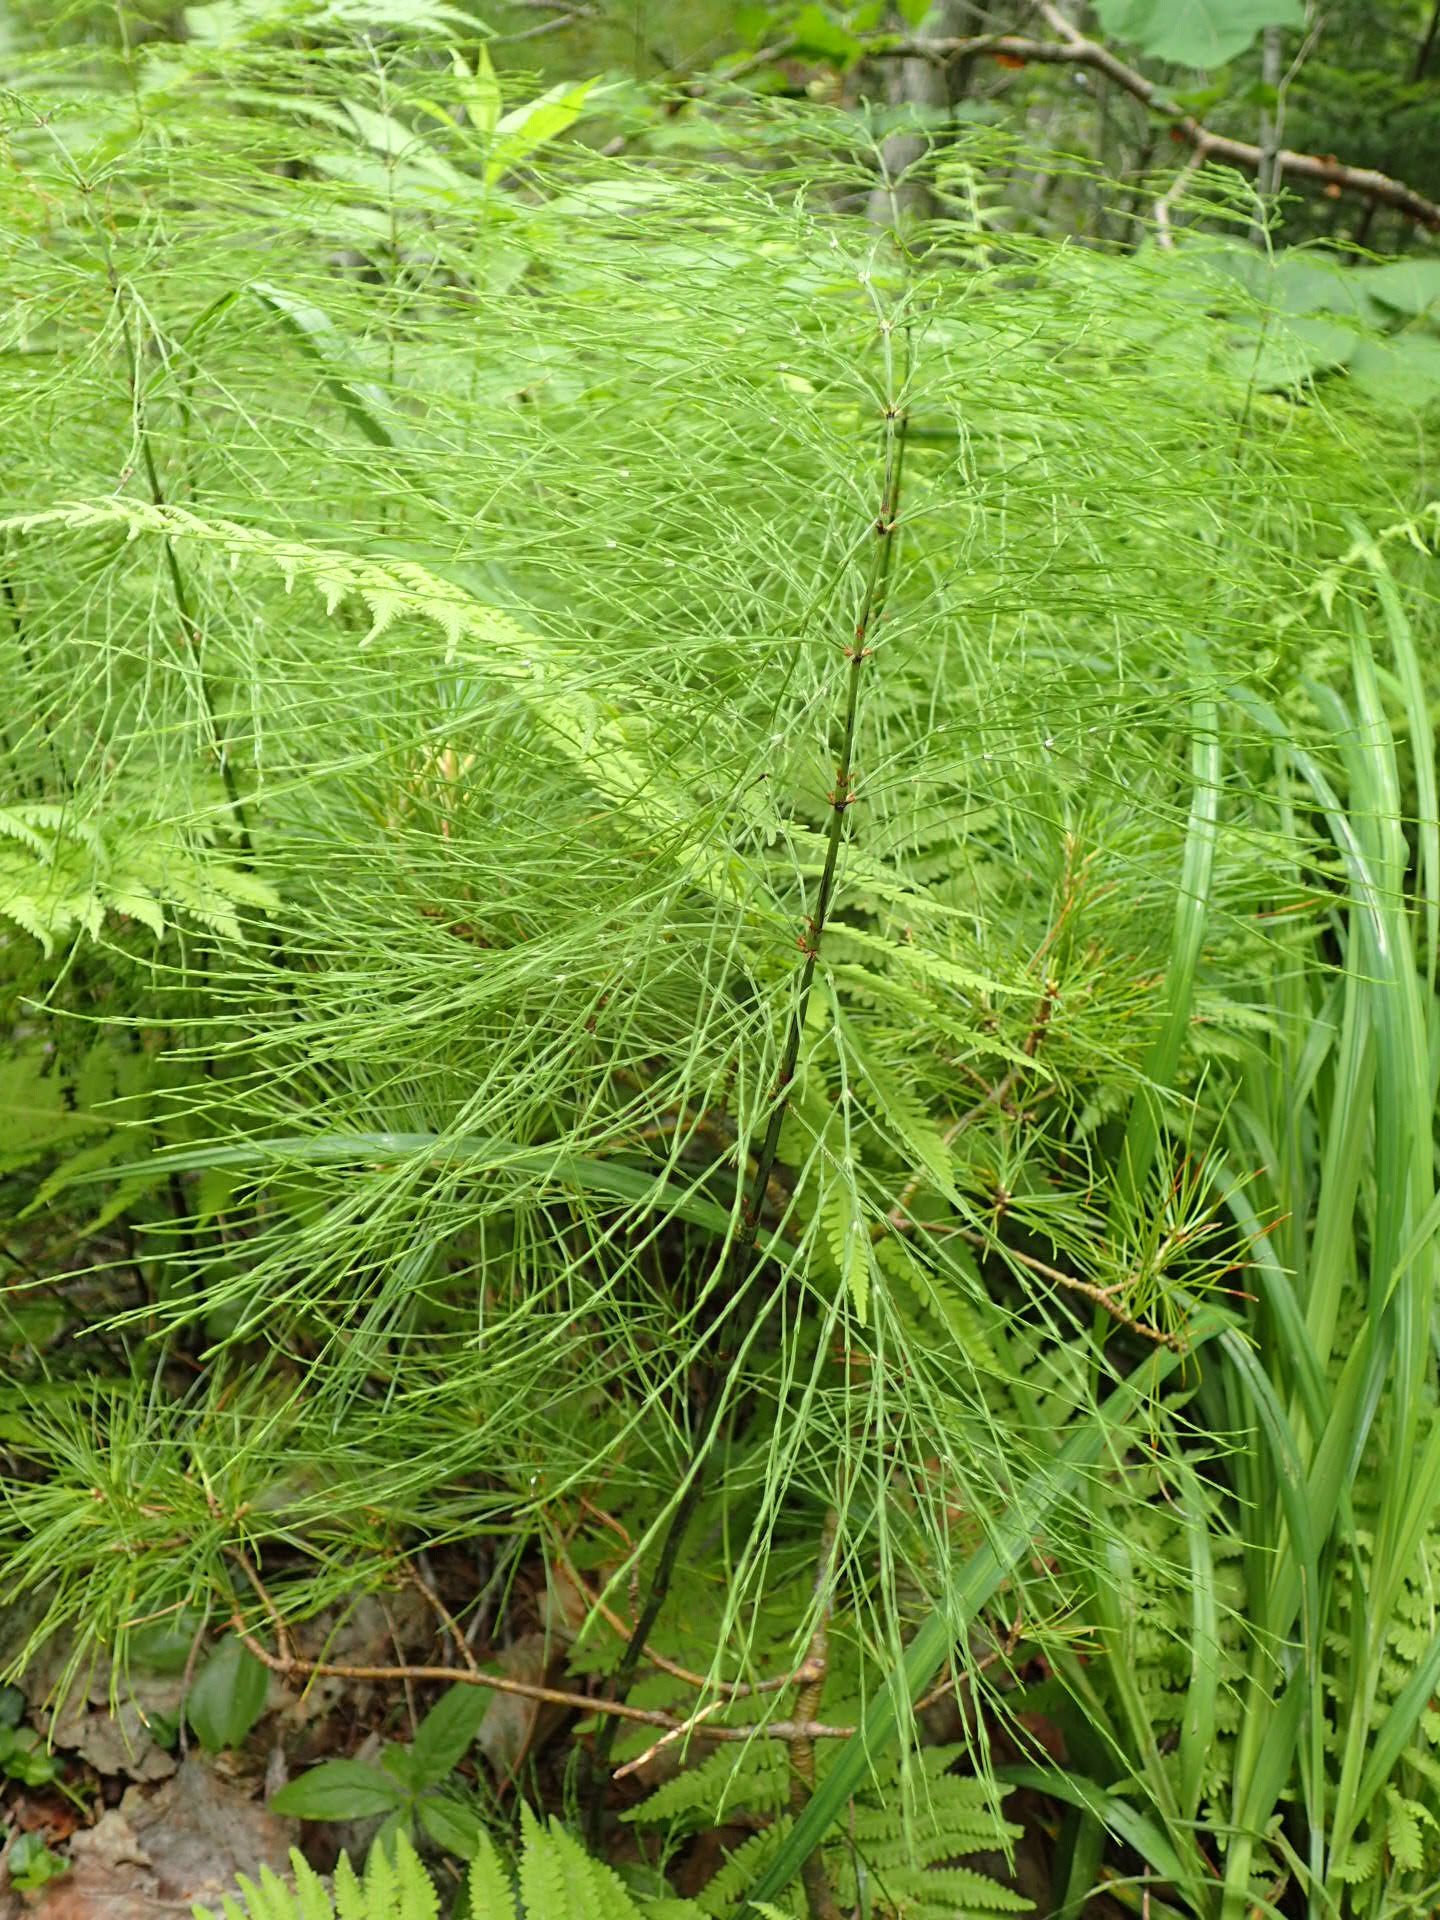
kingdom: Plantae
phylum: Tracheophyta
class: Polypodiopsida
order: Equisetales
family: Equisetaceae
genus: Equisetum
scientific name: Equisetum sylvaticum
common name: Wood horsetail
